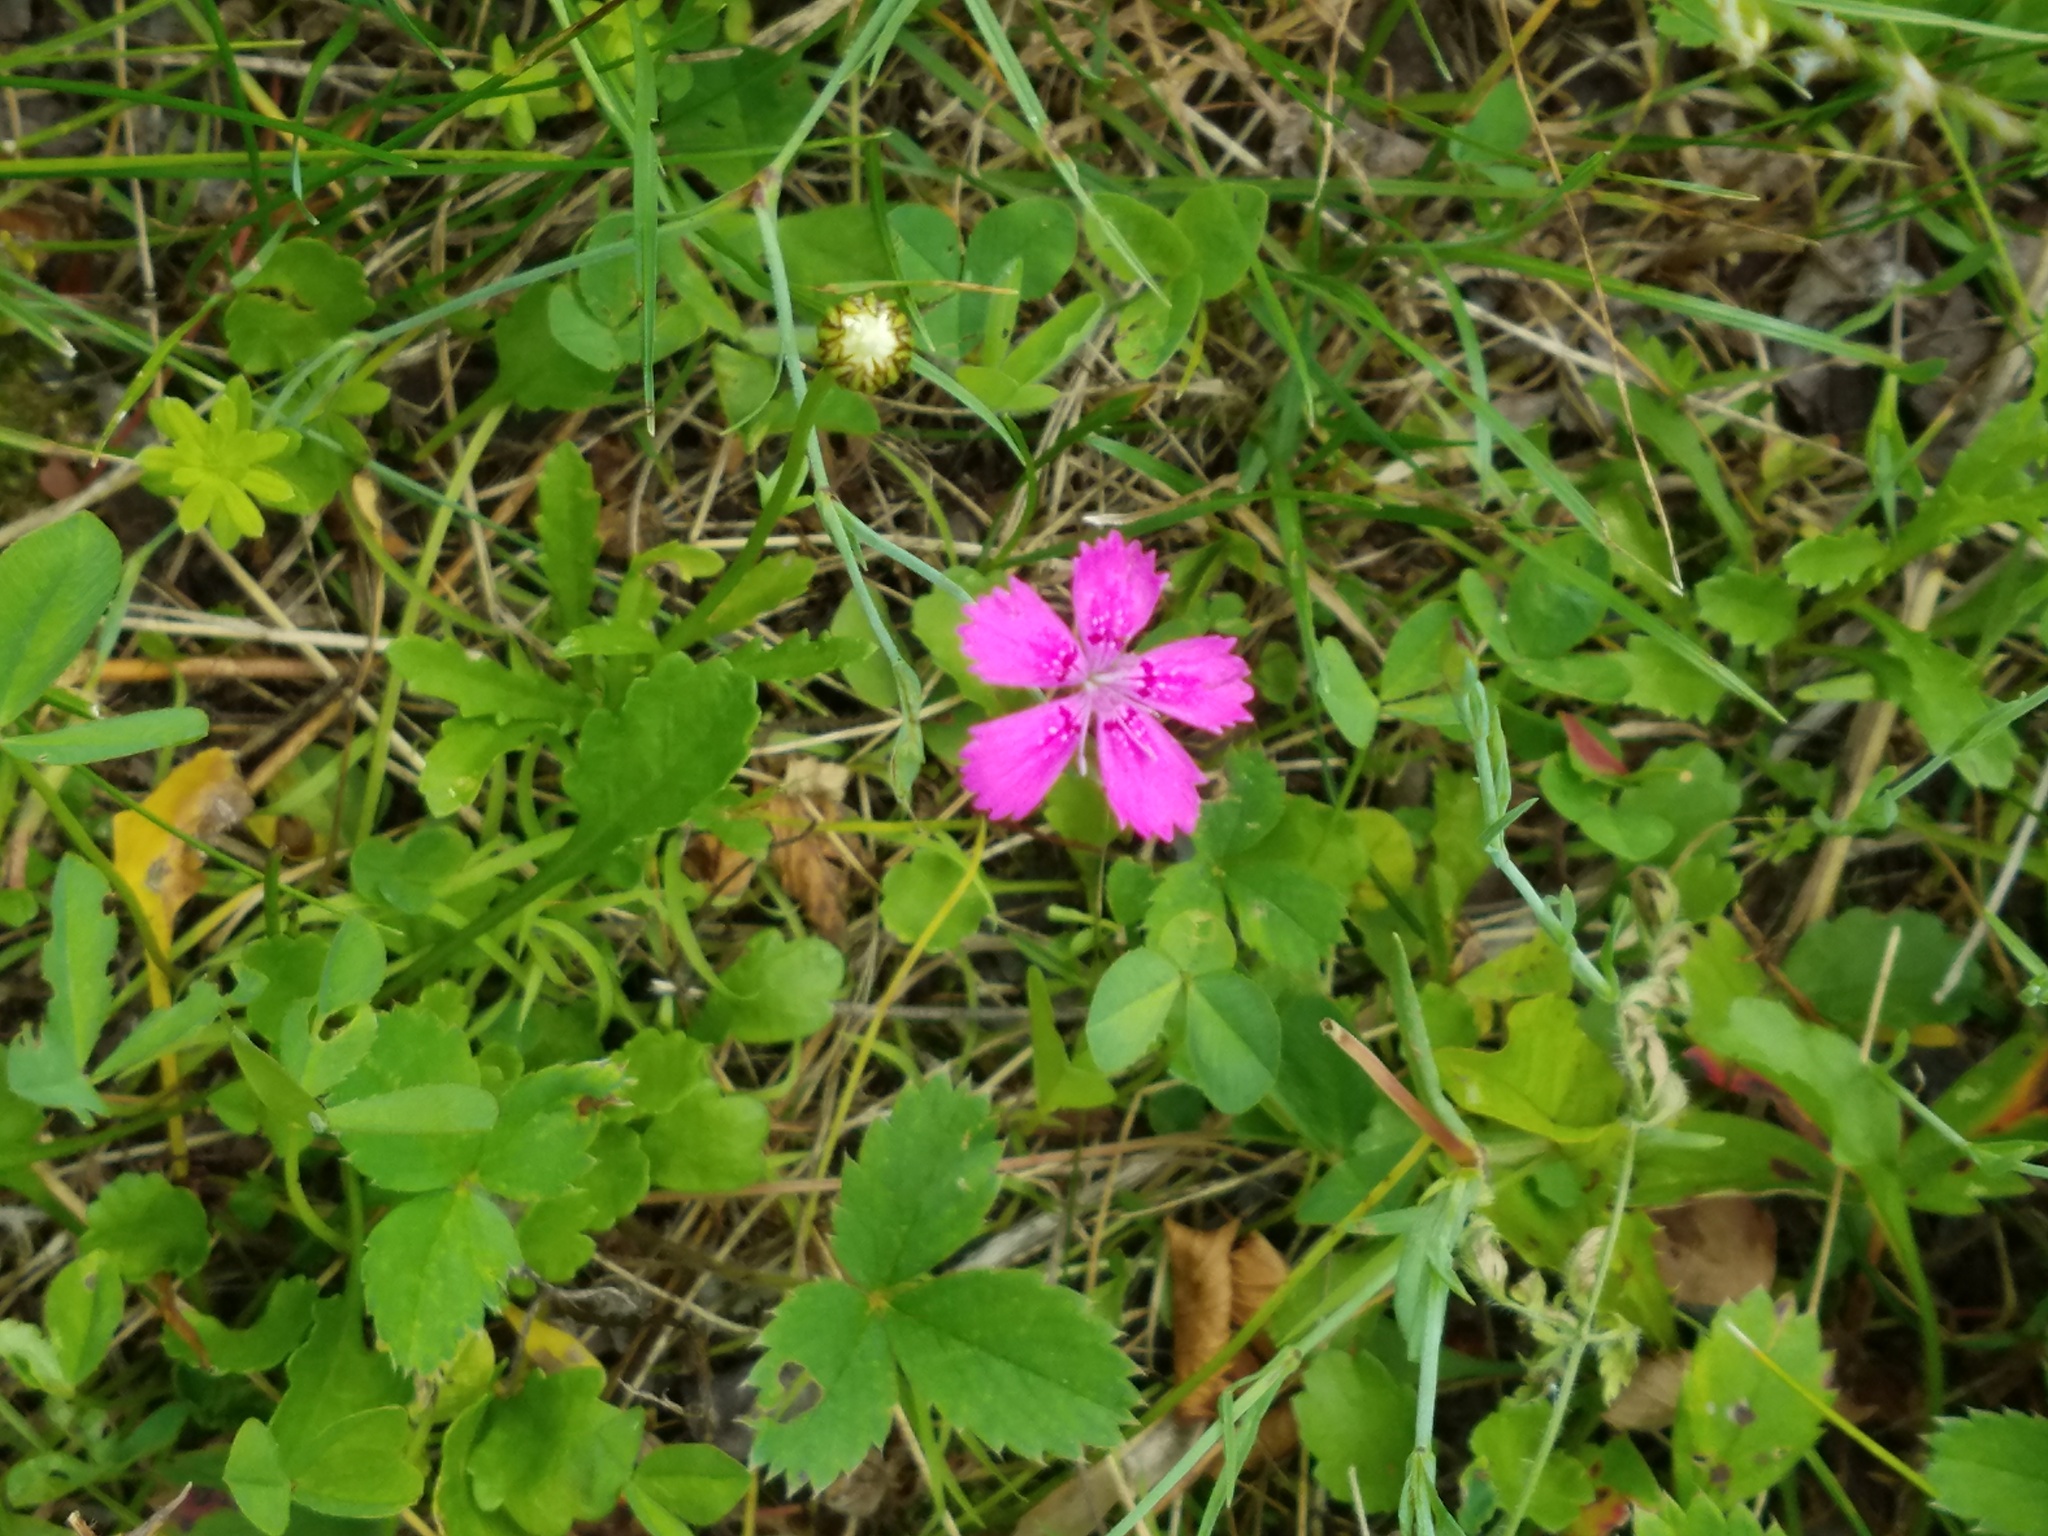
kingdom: Plantae
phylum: Tracheophyta
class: Magnoliopsida
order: Caryophyllales
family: Caryophyllaceae
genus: Dianthus
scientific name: Dianthus deltoides
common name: Maiden pink
